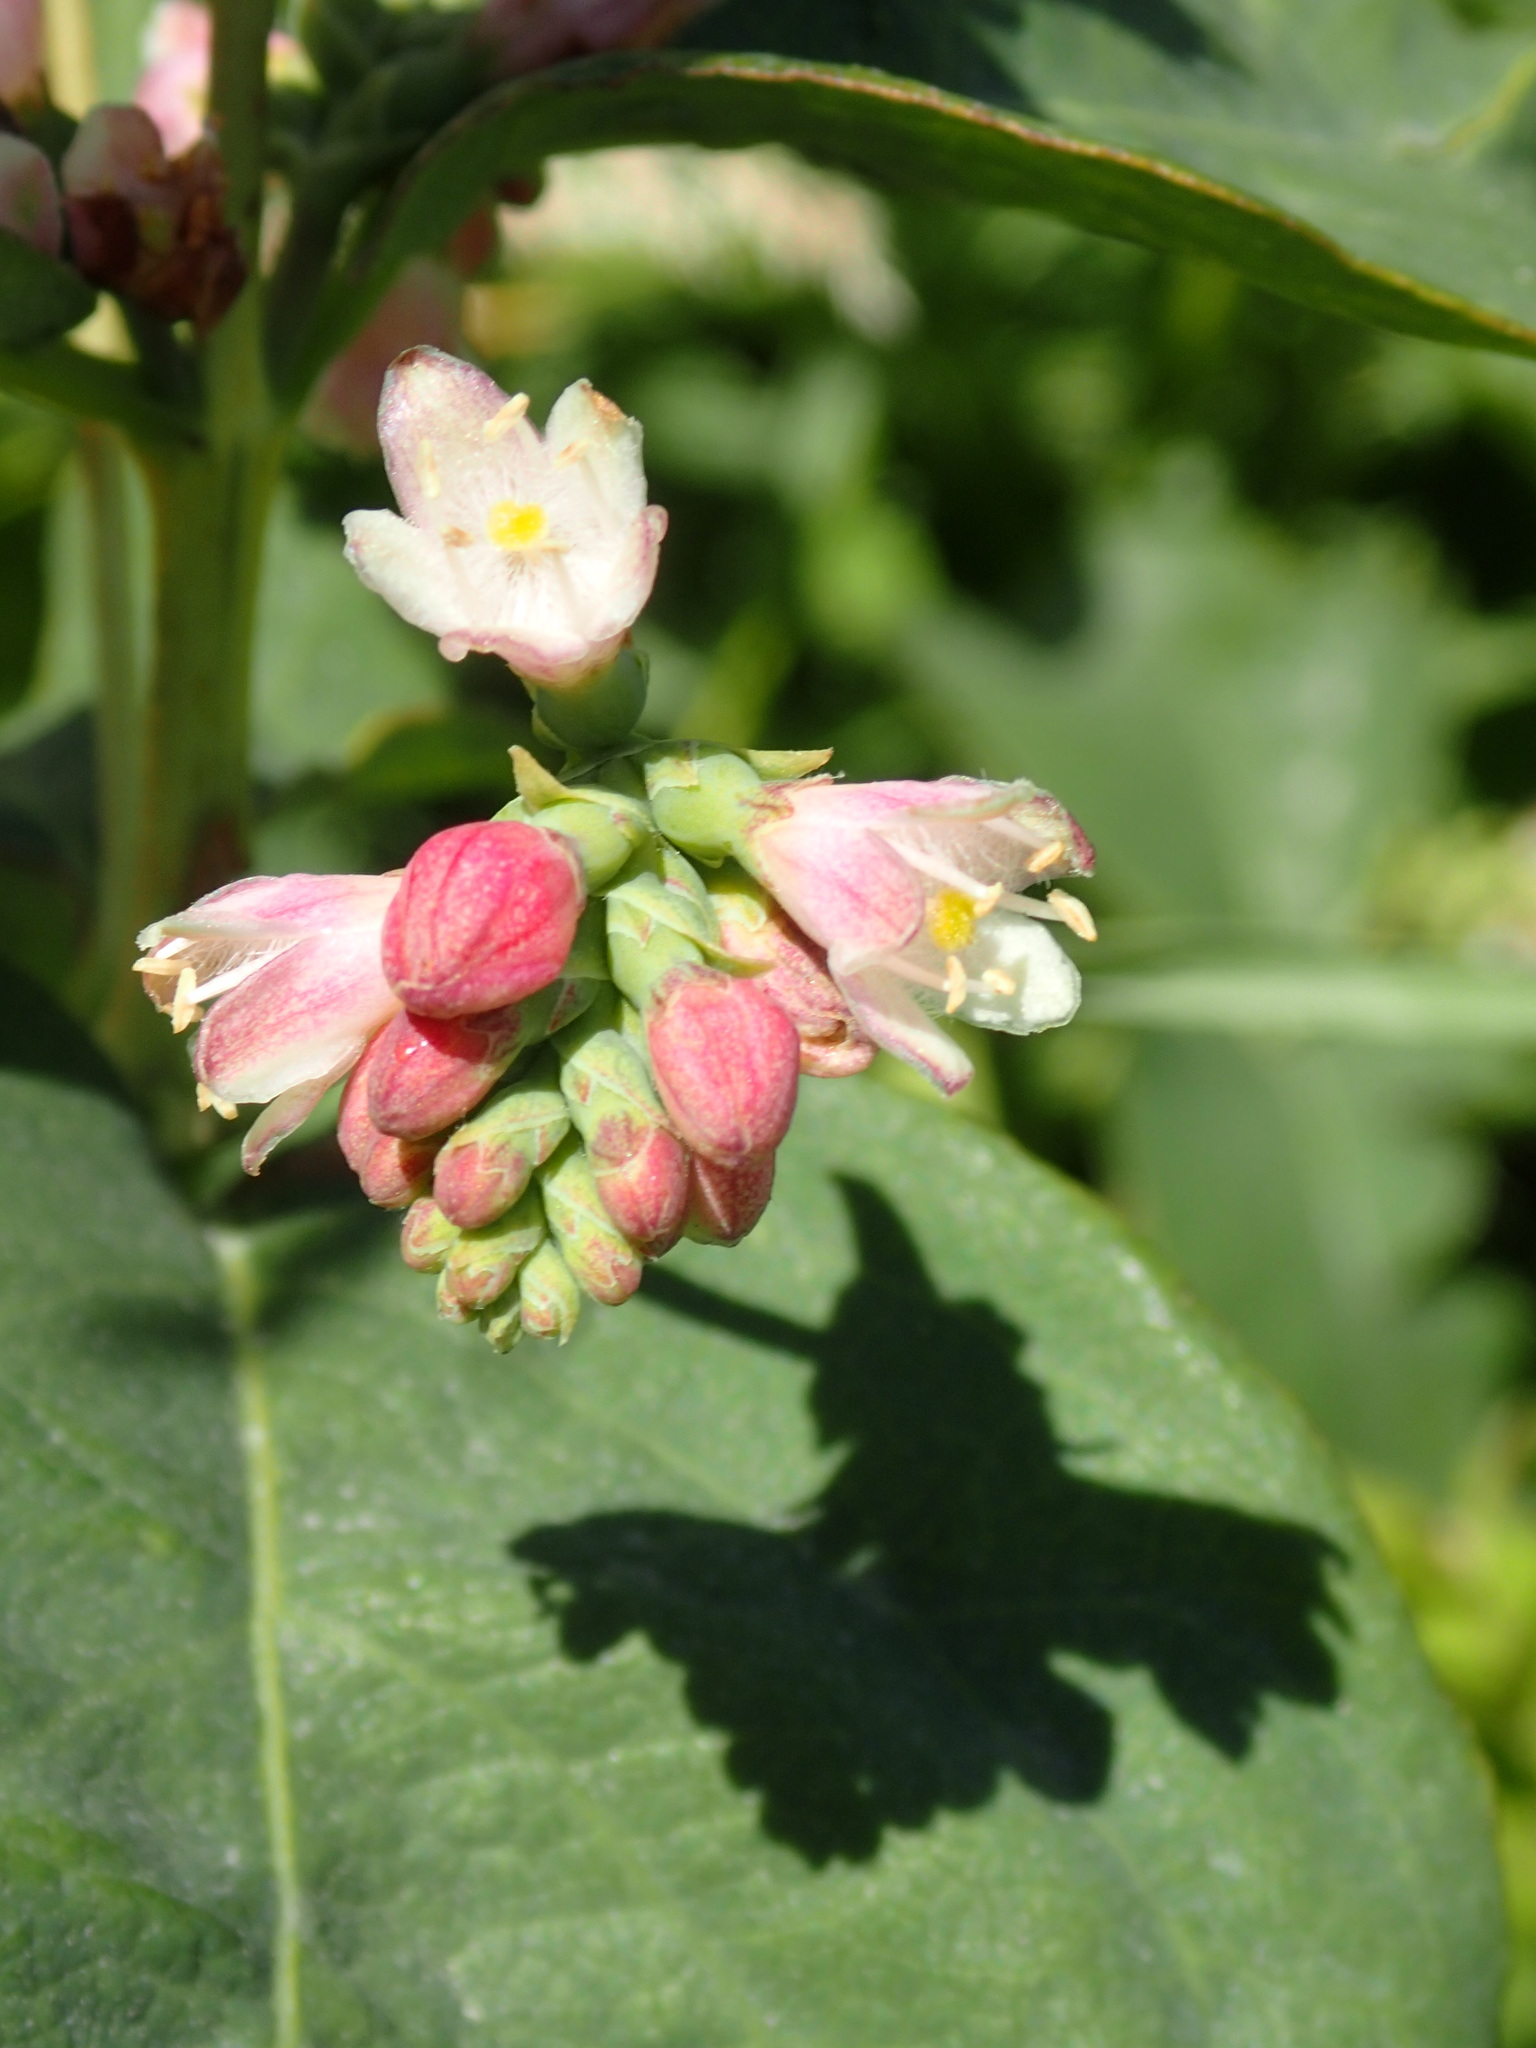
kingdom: Plantae
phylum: Tracheophyta
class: Magnoliopsida
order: Dipsacales
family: Caprifoliaceae
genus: Symphoricarpos
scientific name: Symphoricarpos albus
